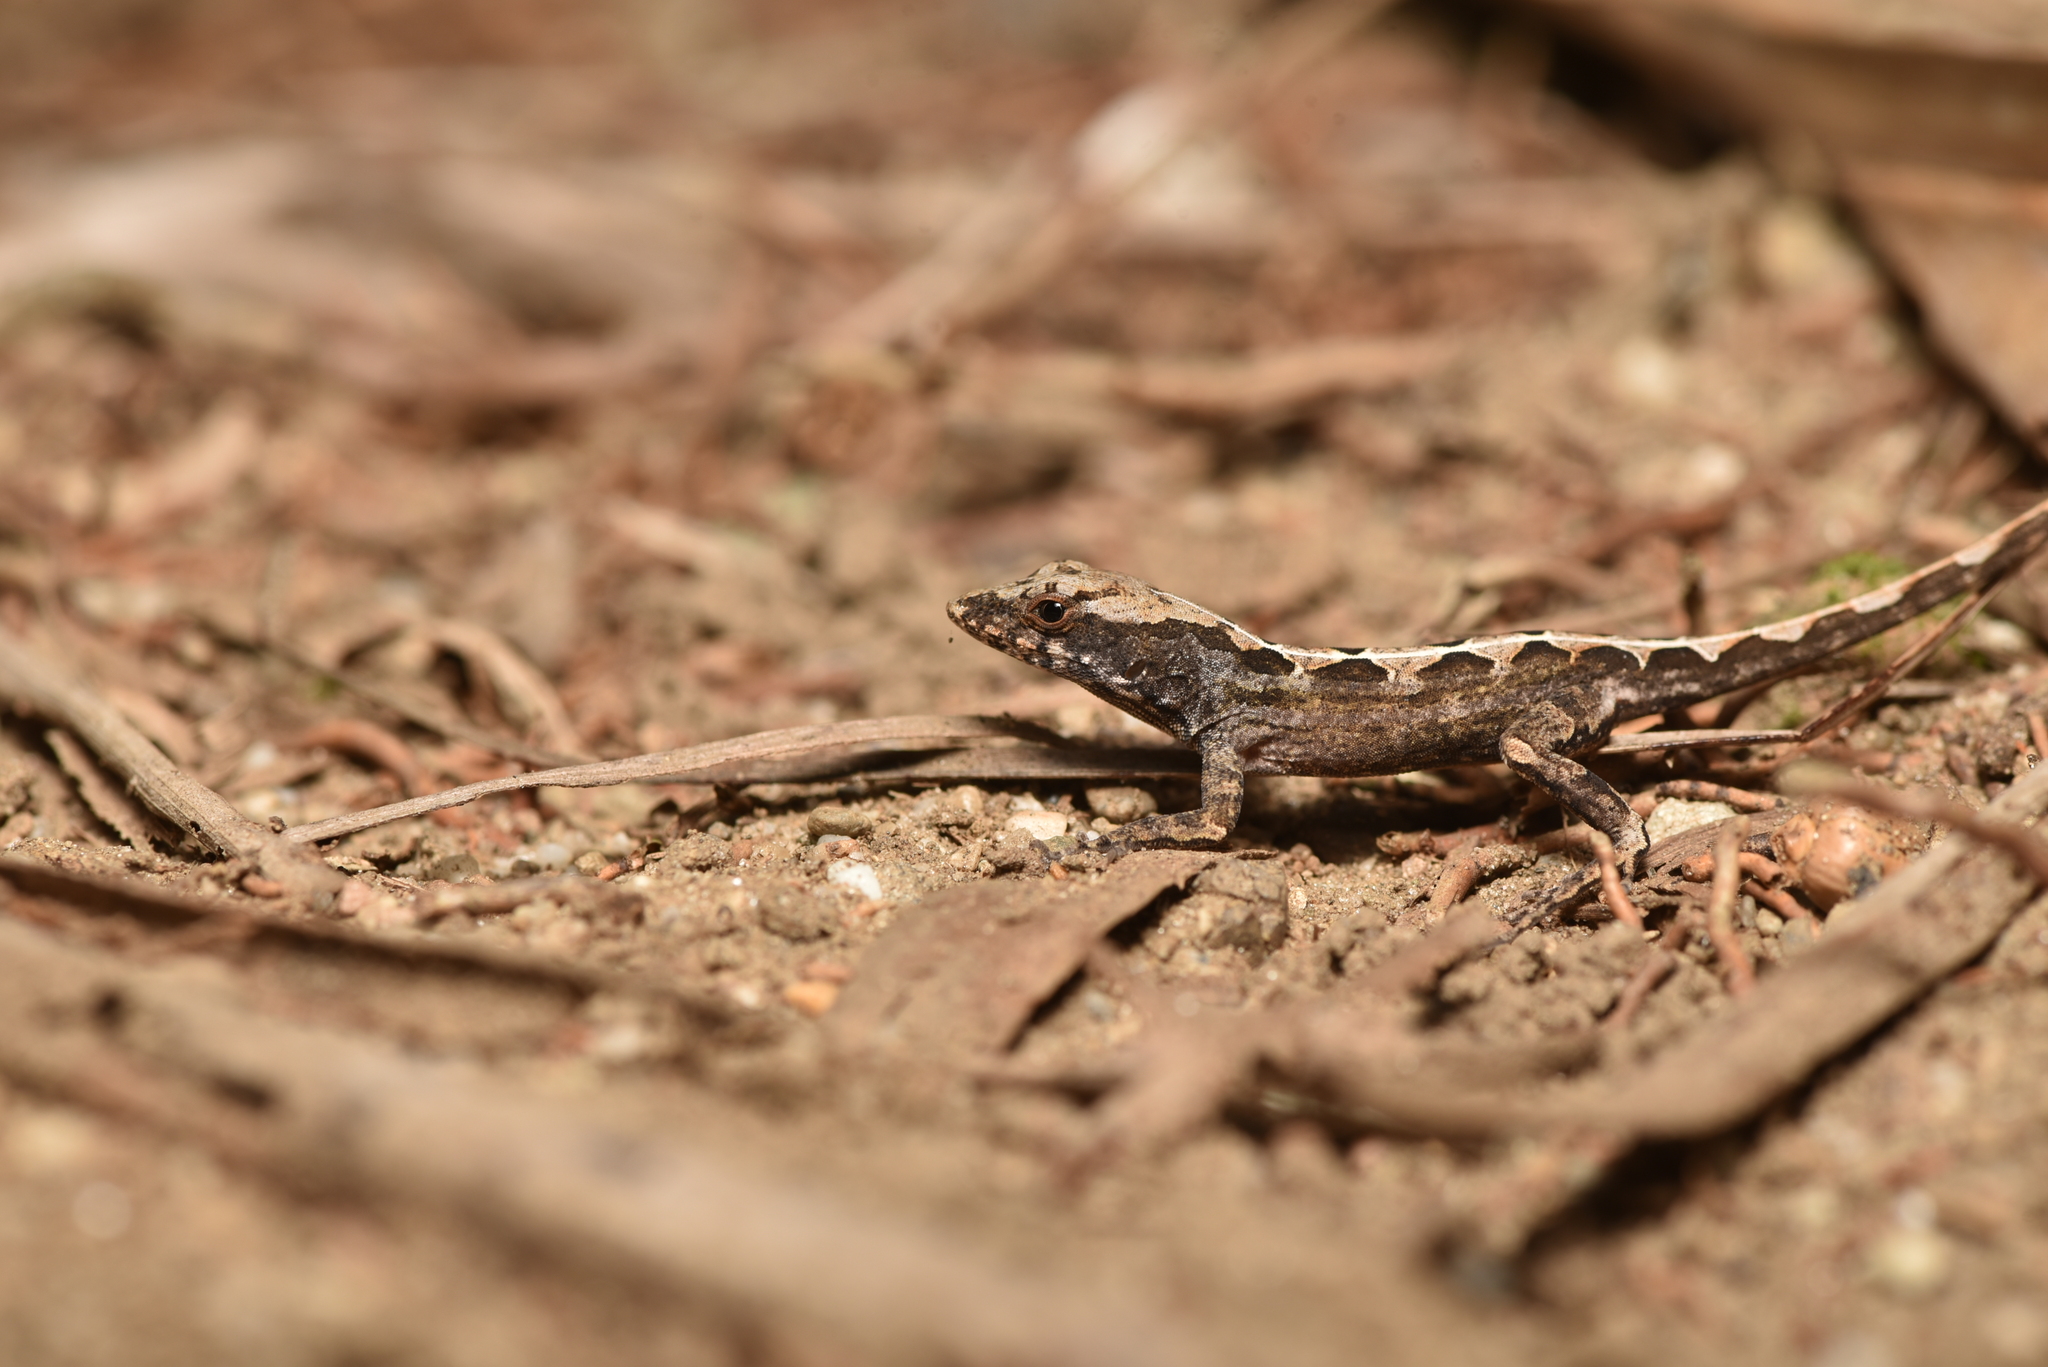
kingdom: Animalia
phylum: Chordata
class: Squamata
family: Dactyloidae
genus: Anolis
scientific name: Anolis sagrei
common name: Brown anole
